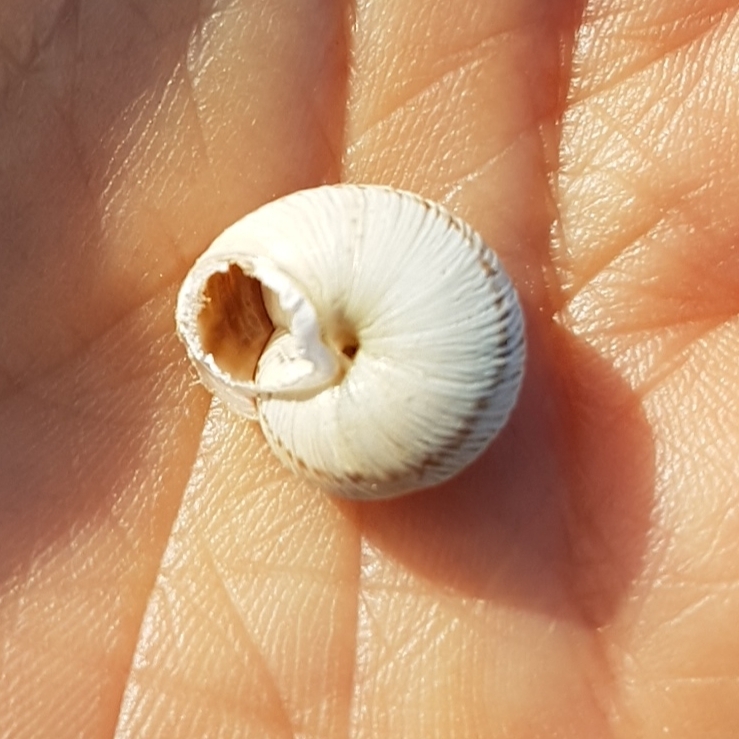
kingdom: Animalia
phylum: Mollusca
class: Gastropoda
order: Stylommatophora
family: Helicidae
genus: Marmorana
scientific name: Marmorana muralis
